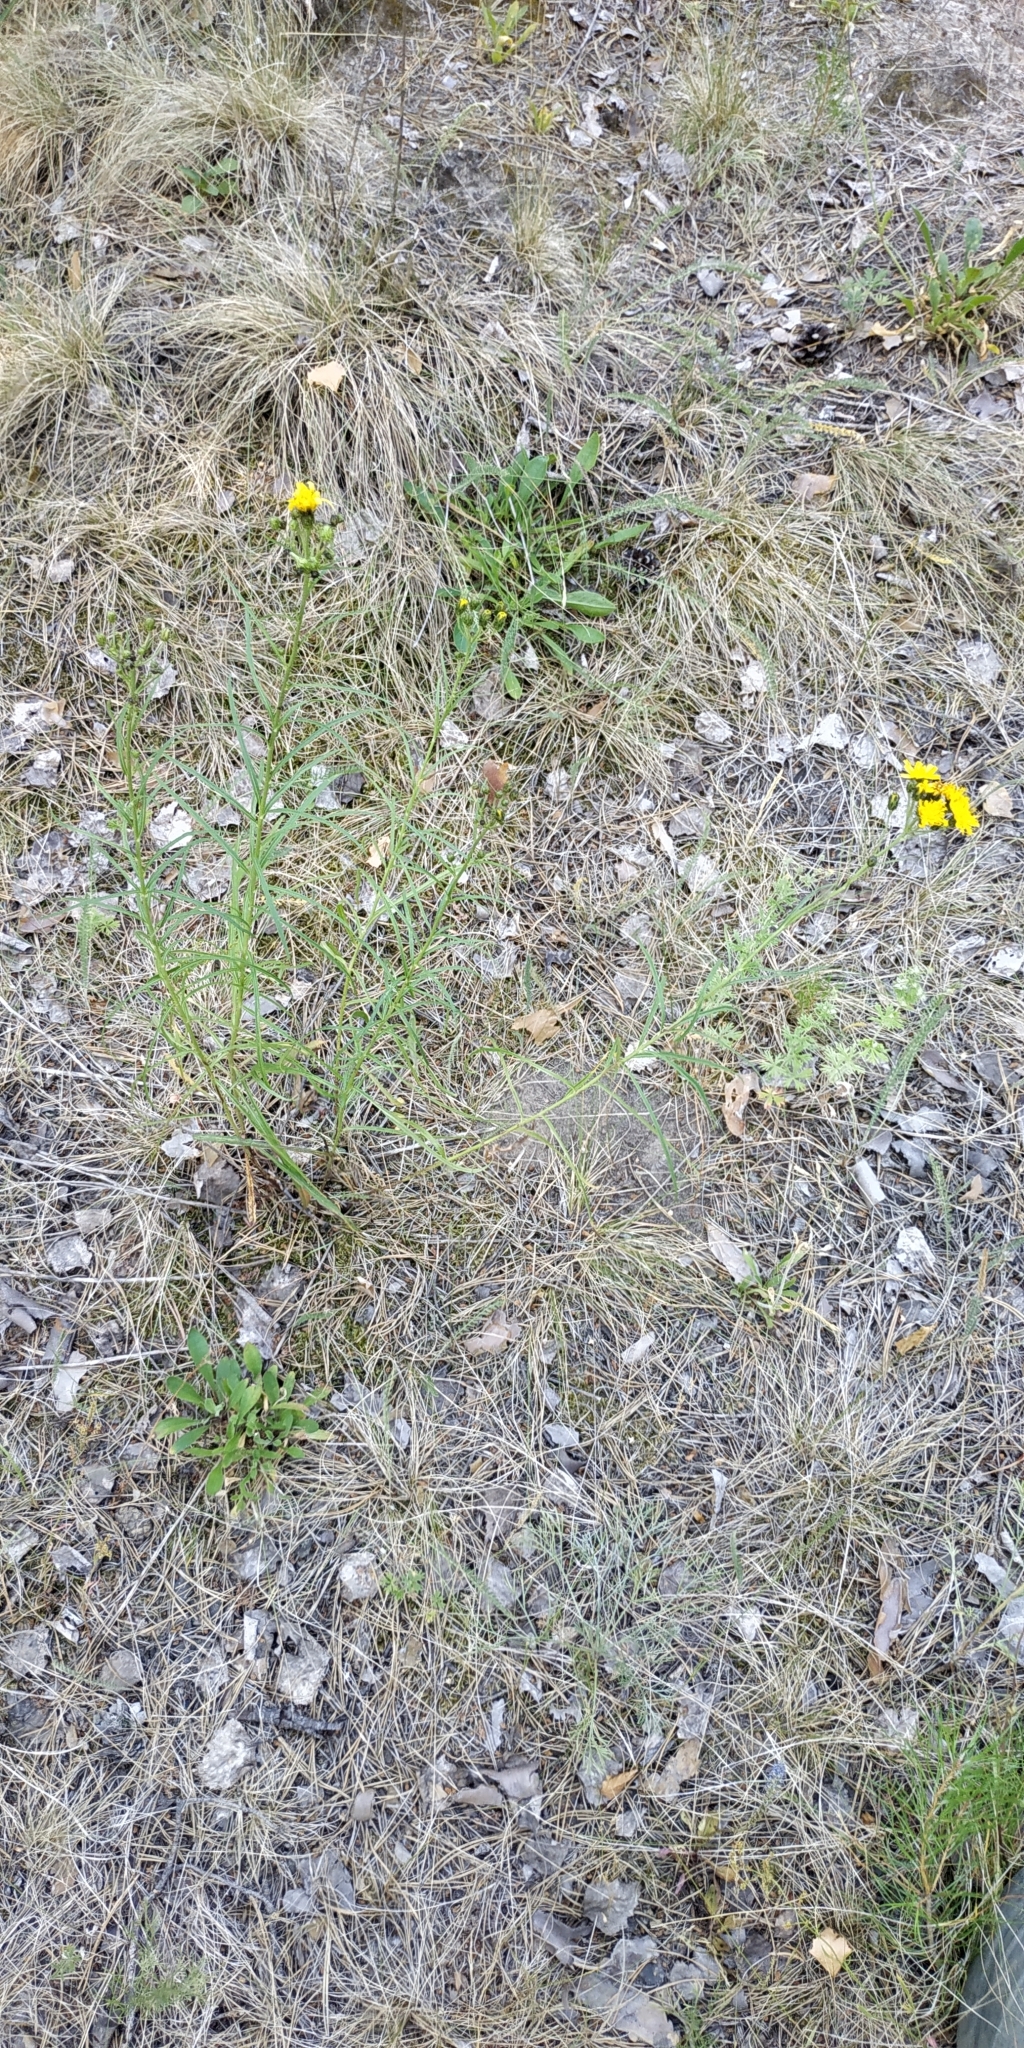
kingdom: Plantae
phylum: Tracheophyta
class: Magnoliopsida
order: Asterales
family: Asteraceae
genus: Hieracium
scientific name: Hieracium umbellatum
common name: Northern hawkweed
